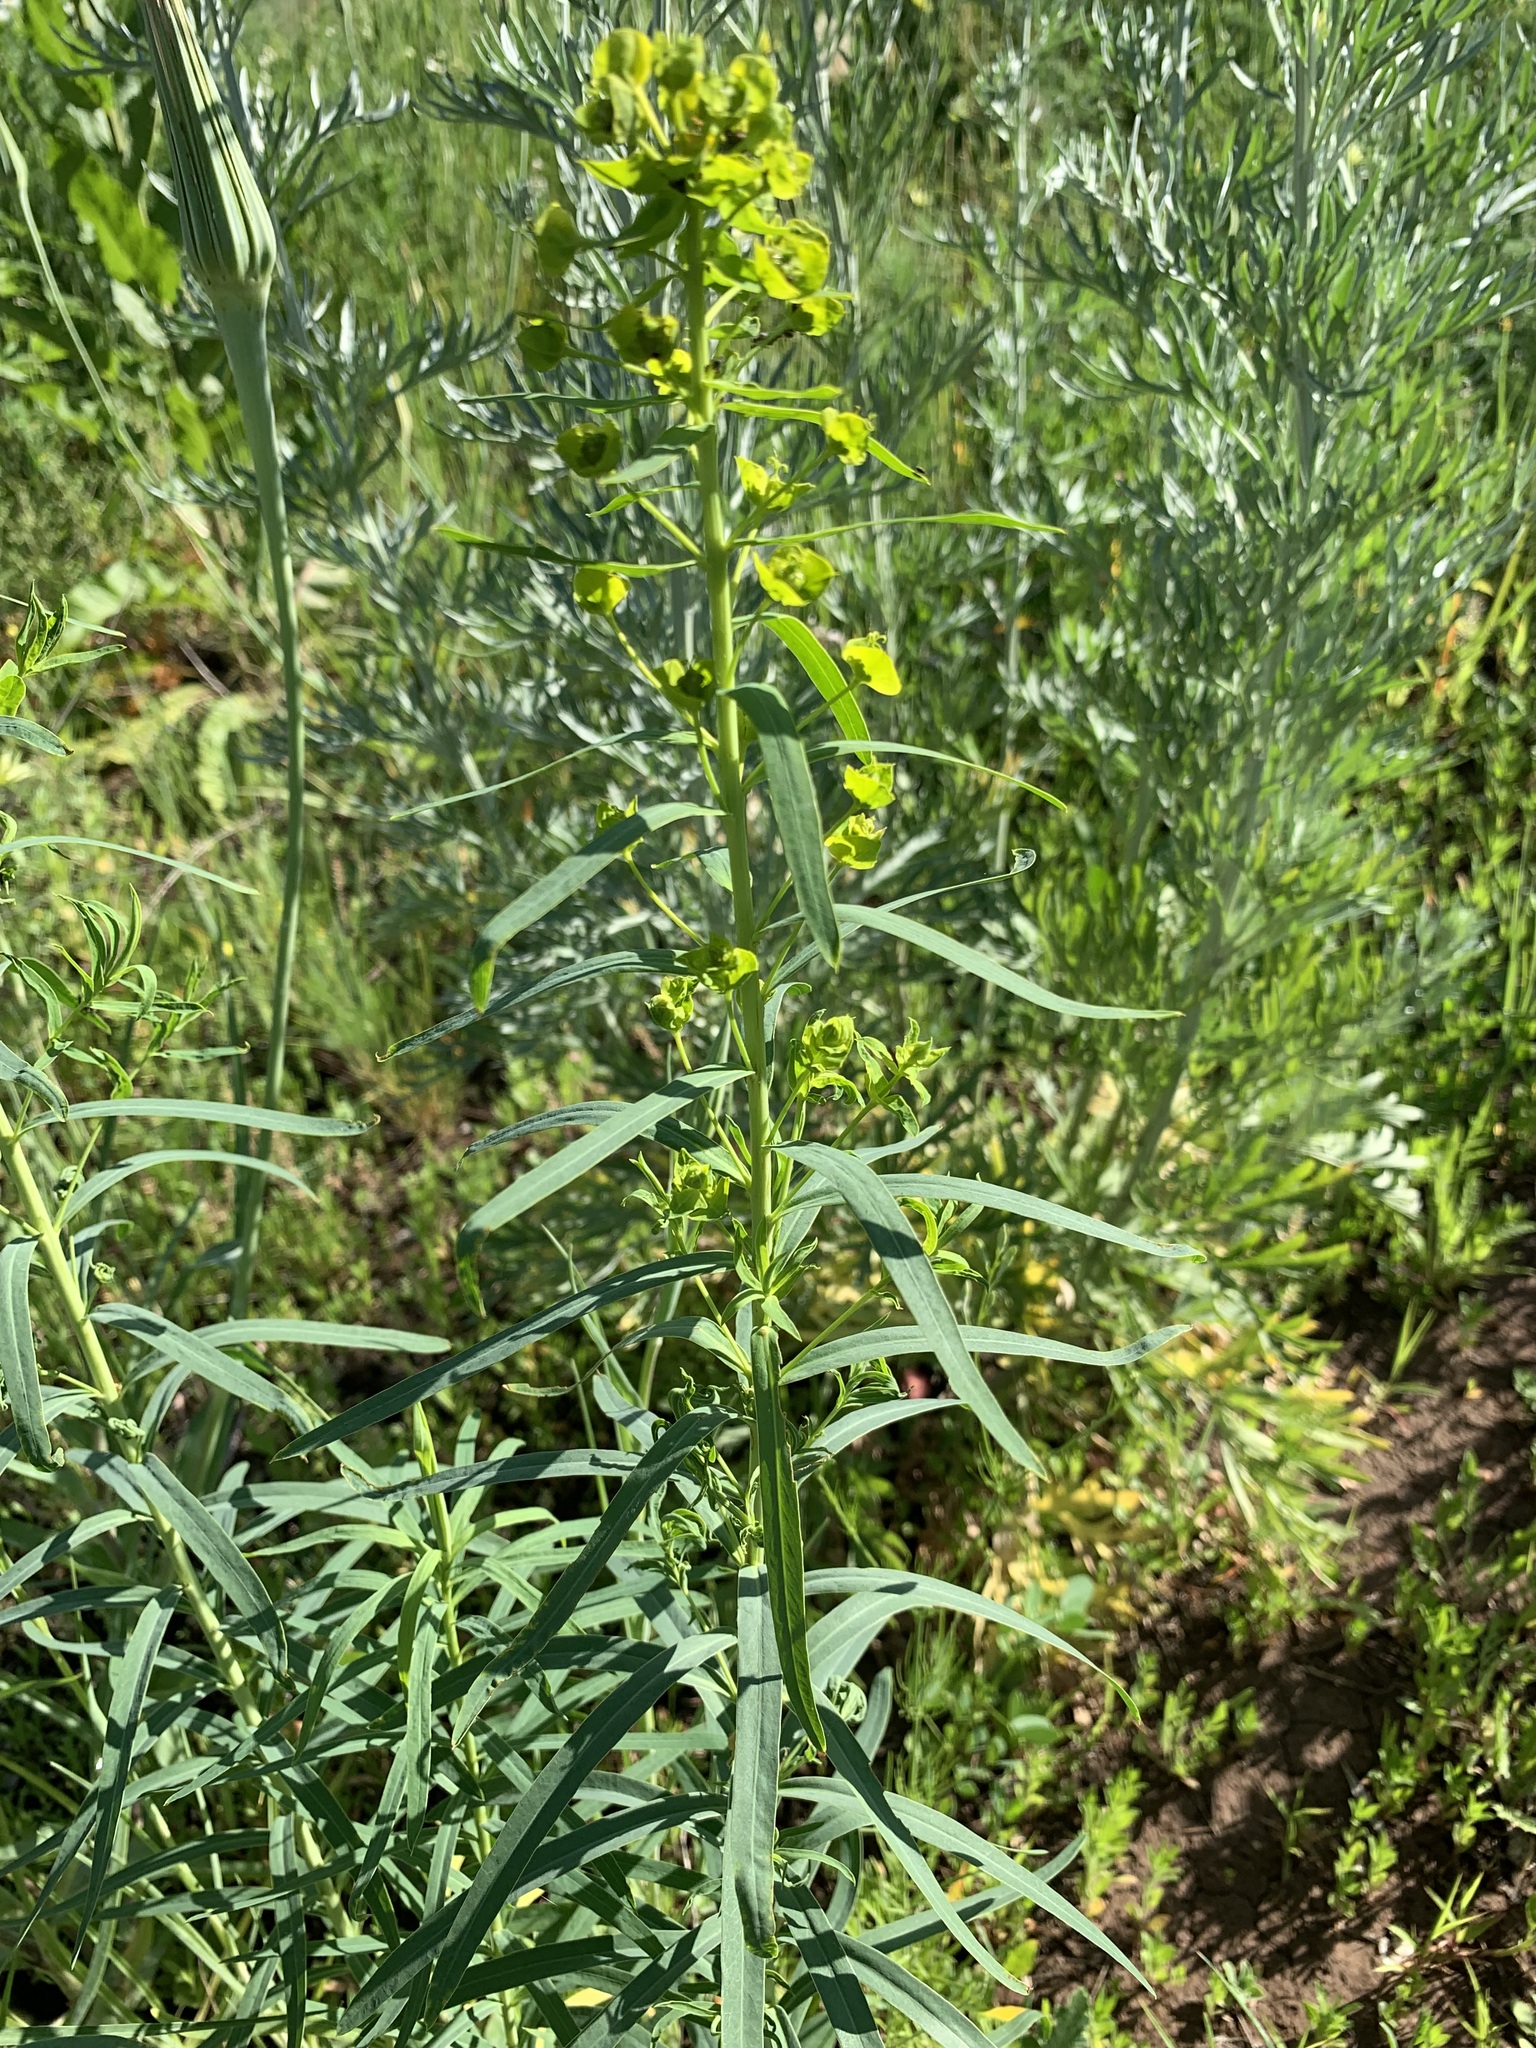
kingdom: Plantae
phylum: Tracheophyta
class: Magnoliopsida
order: Malpighiales
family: Euphorbiaceae
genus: Euphorbia
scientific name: Euphorbia virgata
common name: Leafy spurge
